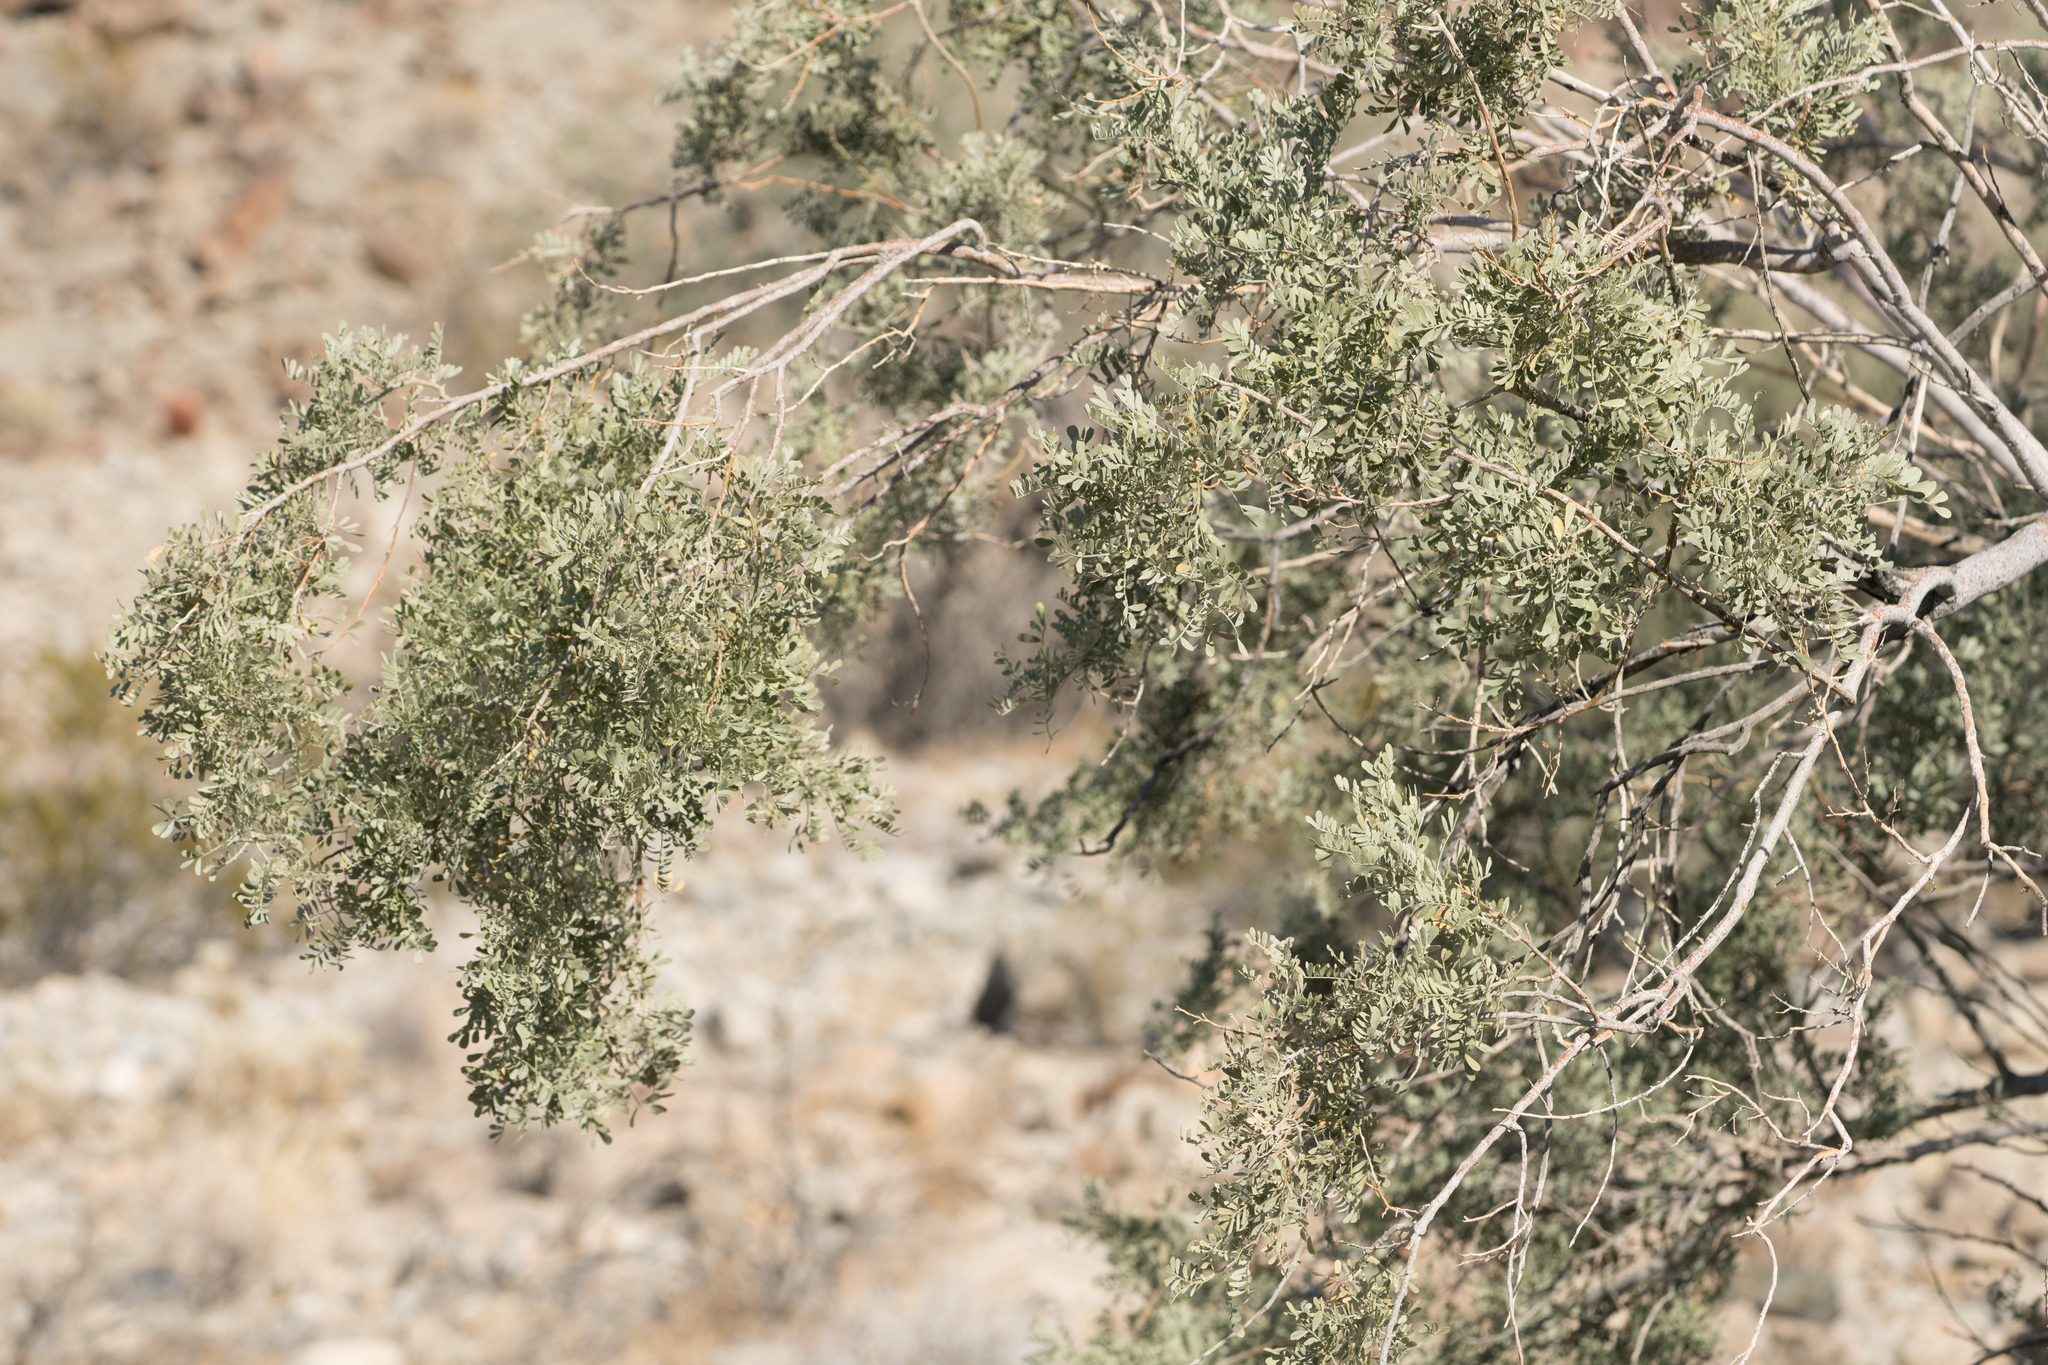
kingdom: Plantae
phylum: Tracheophyta
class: Magnoliopsida
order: Fabales
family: Fabaceae
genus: Olneya
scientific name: Olneya tesota
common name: Desert ironwood
